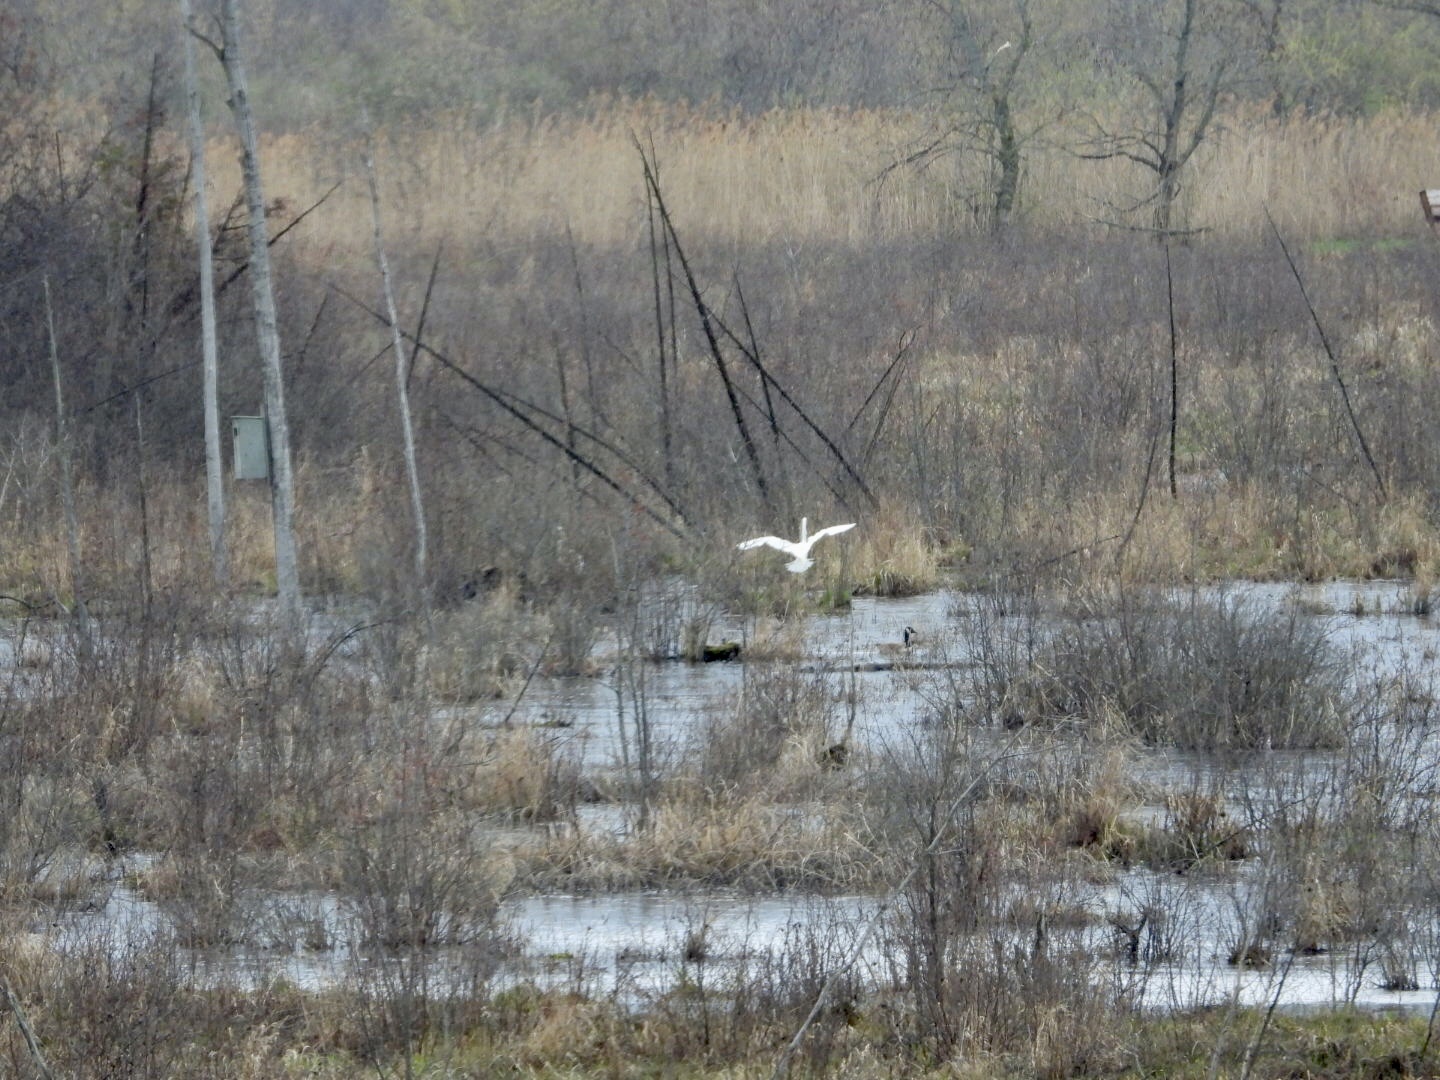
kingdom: Animalia
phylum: Chordata
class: Aves
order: Pelecaniformes
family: Ardeidae
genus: Ardea
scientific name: Ardea alba
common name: Great egret
